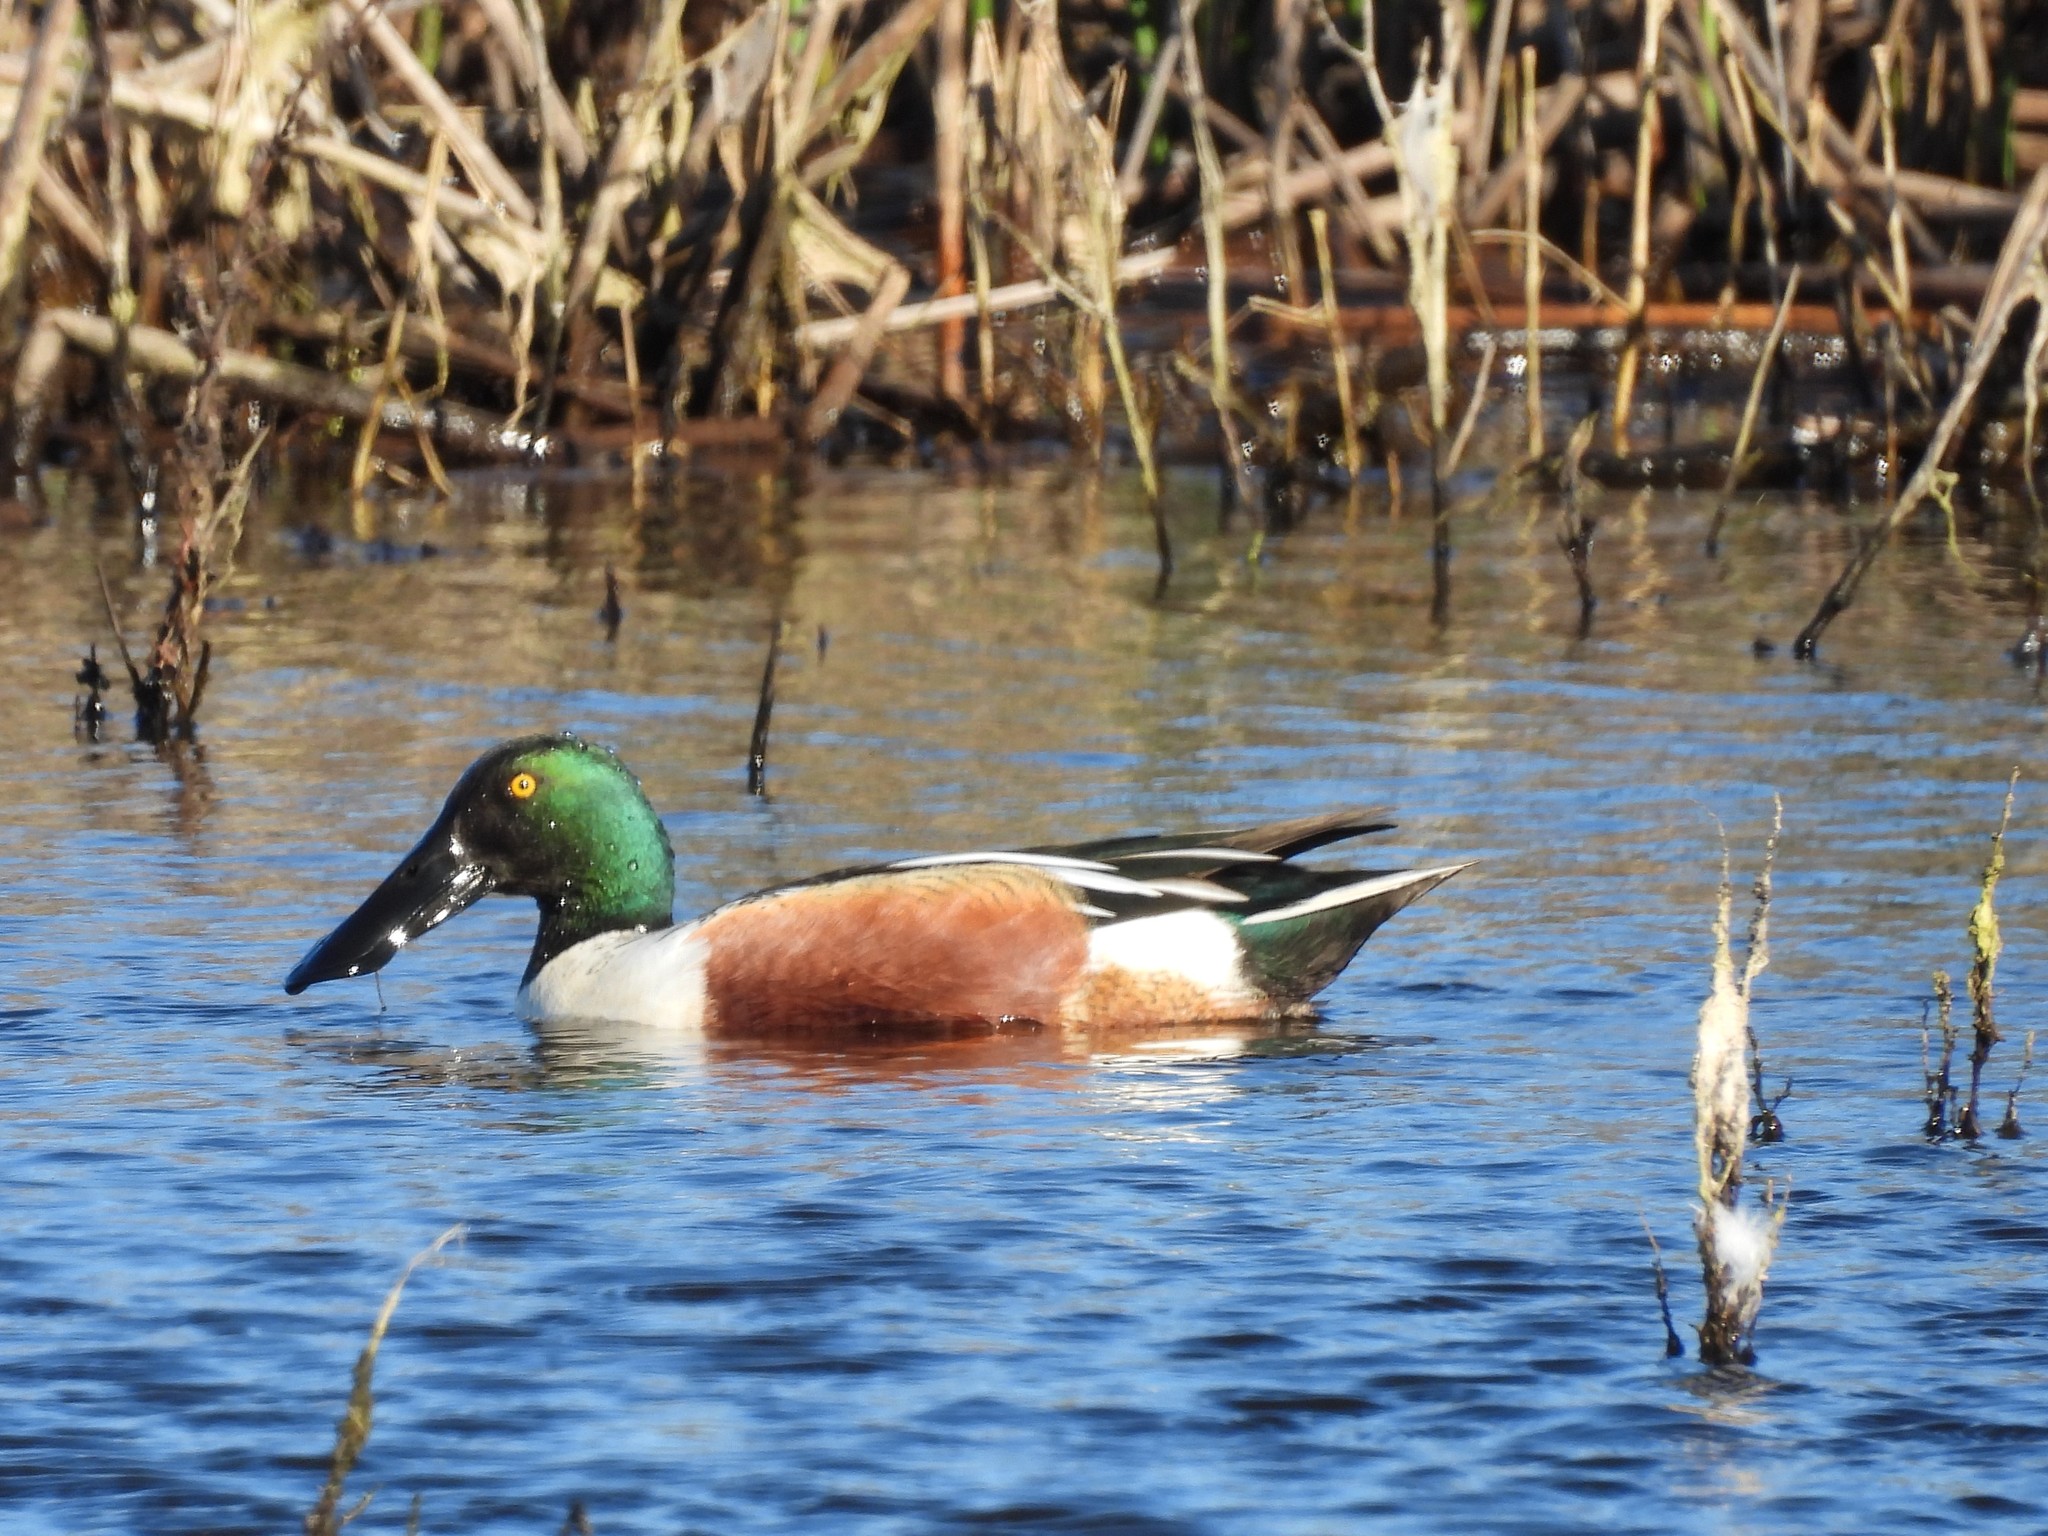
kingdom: Animalia
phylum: Chordata
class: Aves
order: Anseriformes
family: Anatidae
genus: Spatula
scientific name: Spatula clypeata
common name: Northern shoveler
